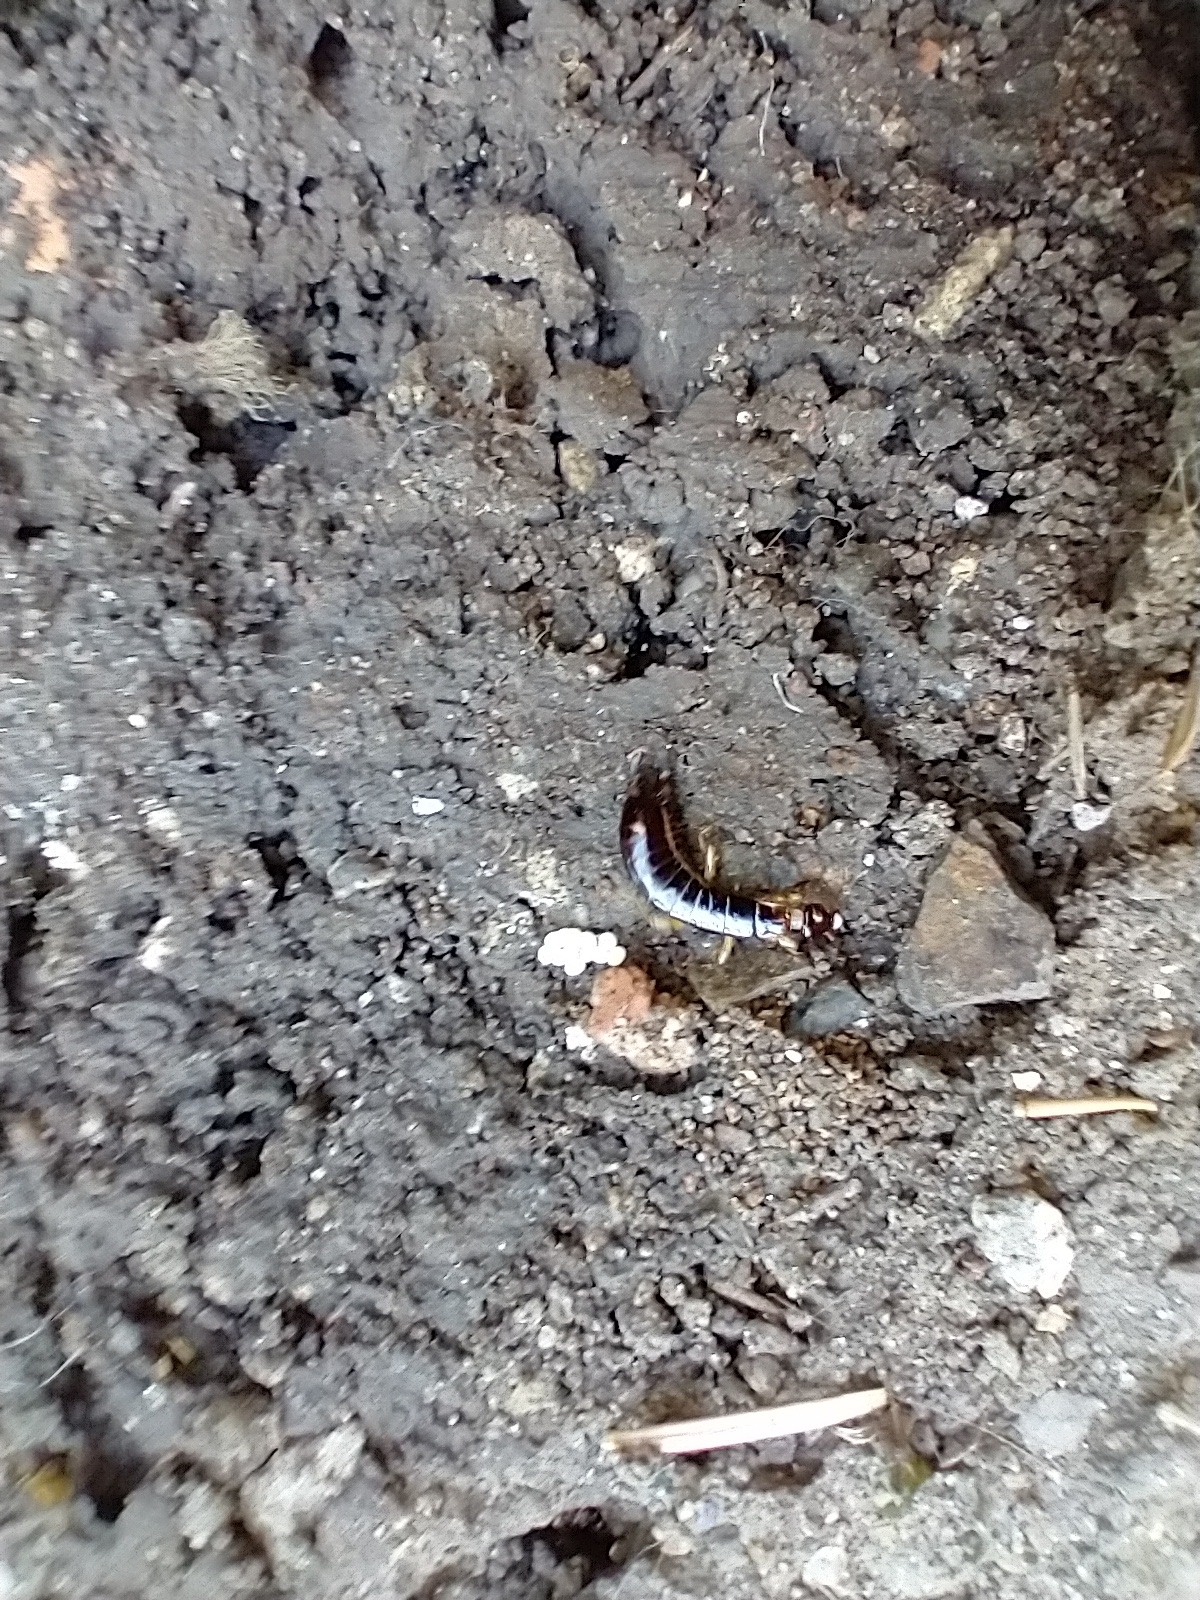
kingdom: Animalia
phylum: Arthropoda
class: Insecta
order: Dermaptera
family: Anisolabididae
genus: Euborellia
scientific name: Euborellia annulipes
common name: Ringlegged earwig
